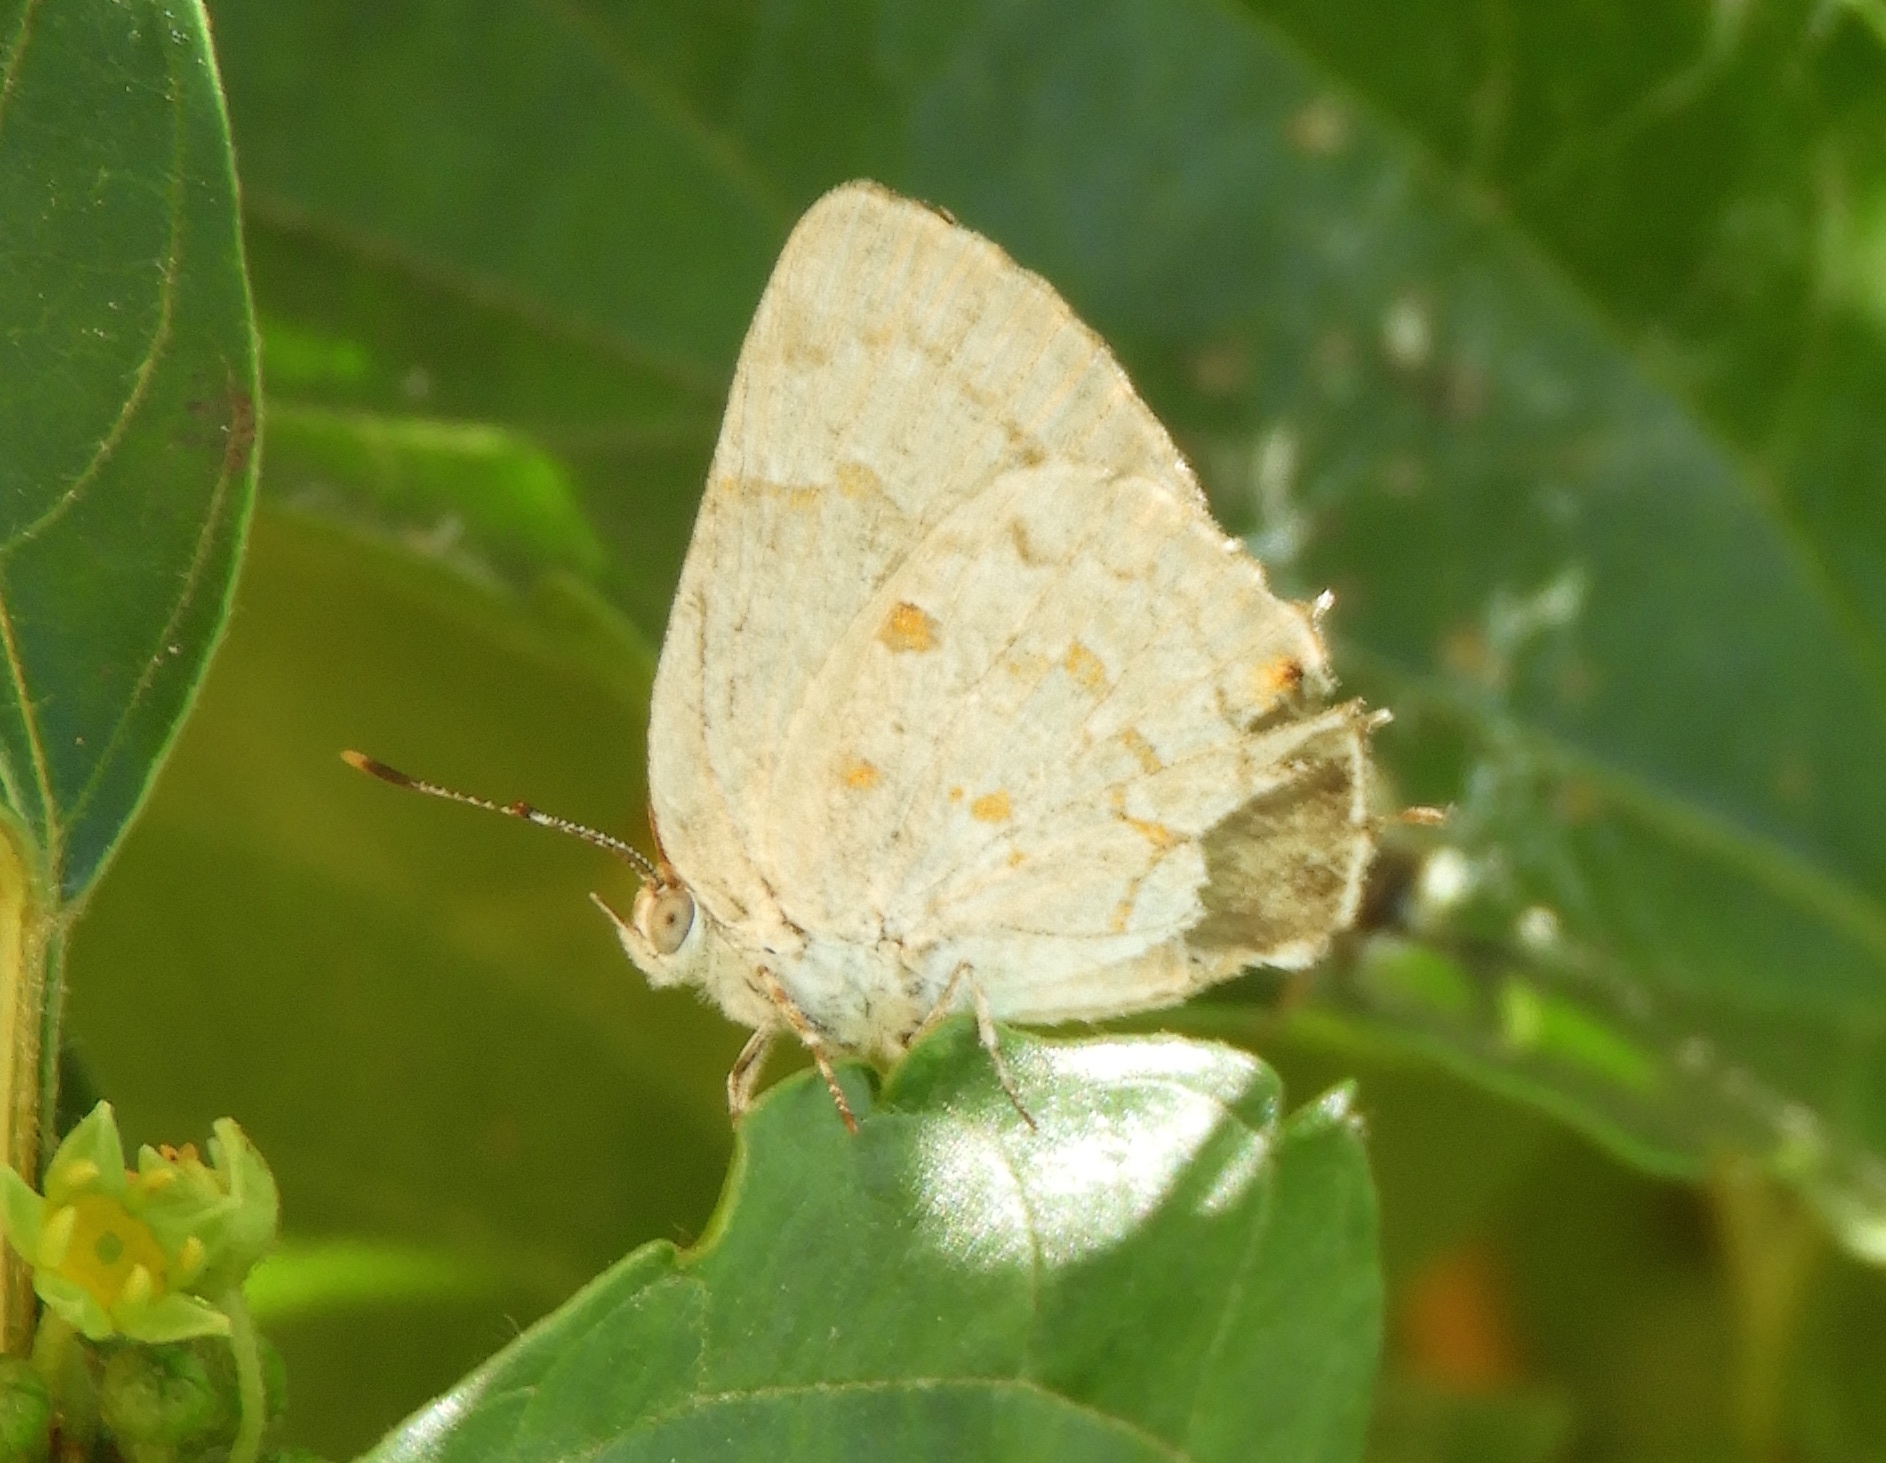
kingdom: Animalia
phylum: Arthropoda
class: Insecta
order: Lepidoptera
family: Lycaenidae
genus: Tmolus
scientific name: Tmolus echion
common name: Red-spotted hairstreak
